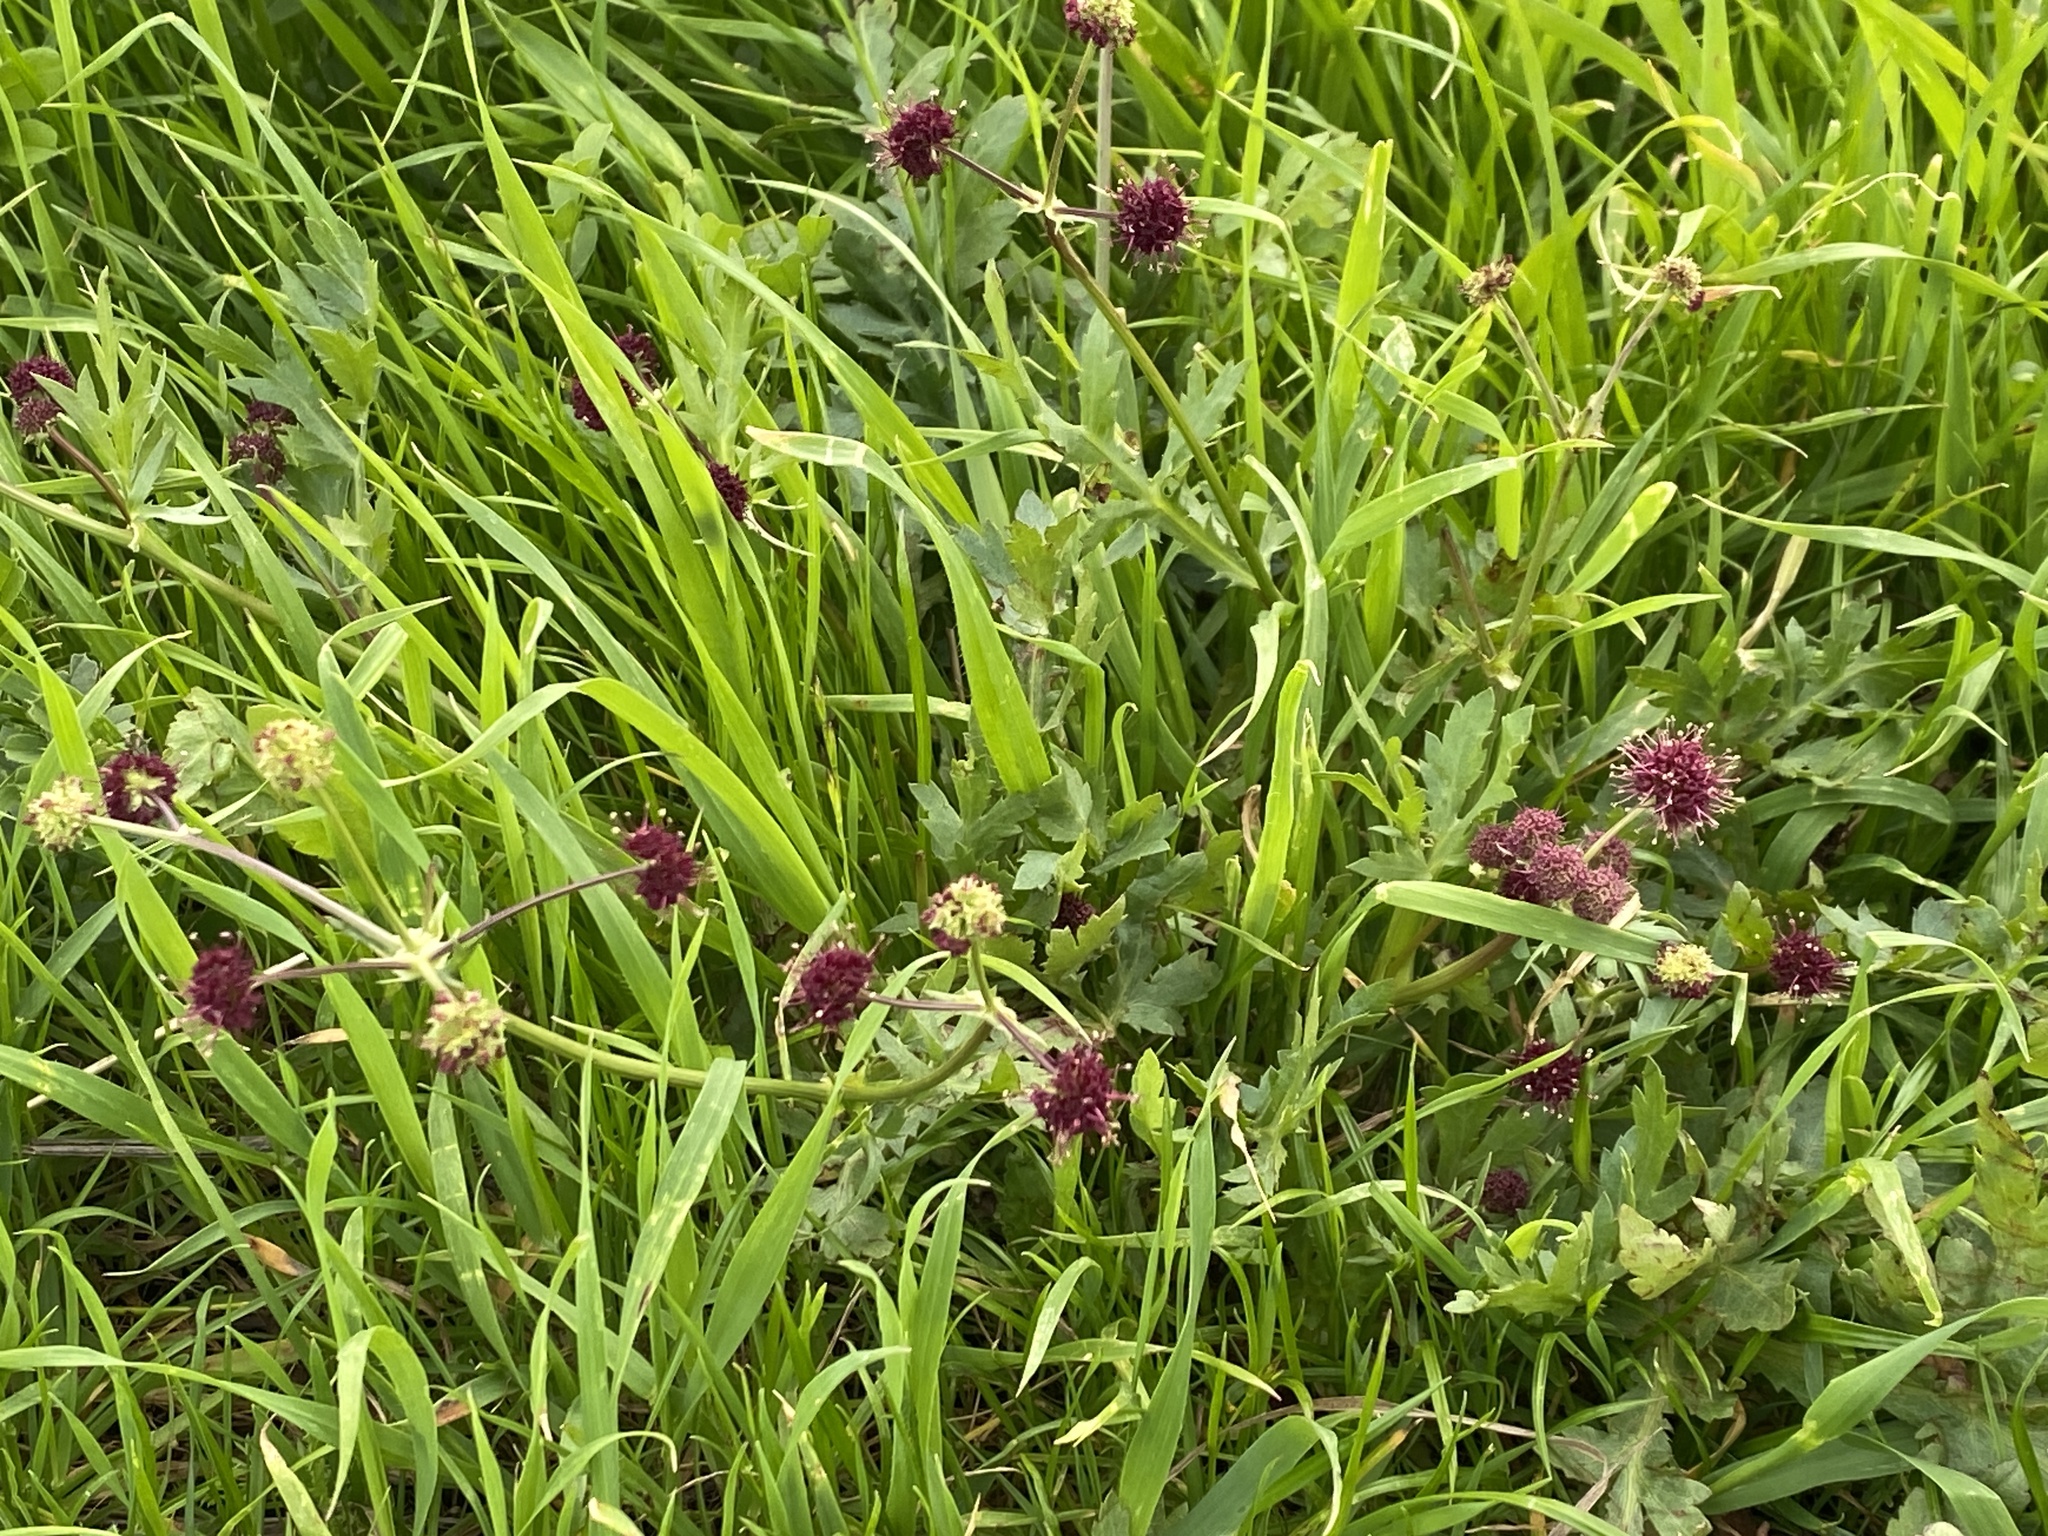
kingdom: Plantae
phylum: Tracheophyta
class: Magnoliopsida
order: Apiales
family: Apiaceae
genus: Sanicula
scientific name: Sanicula bipinnatifida
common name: Shoe-buttons
